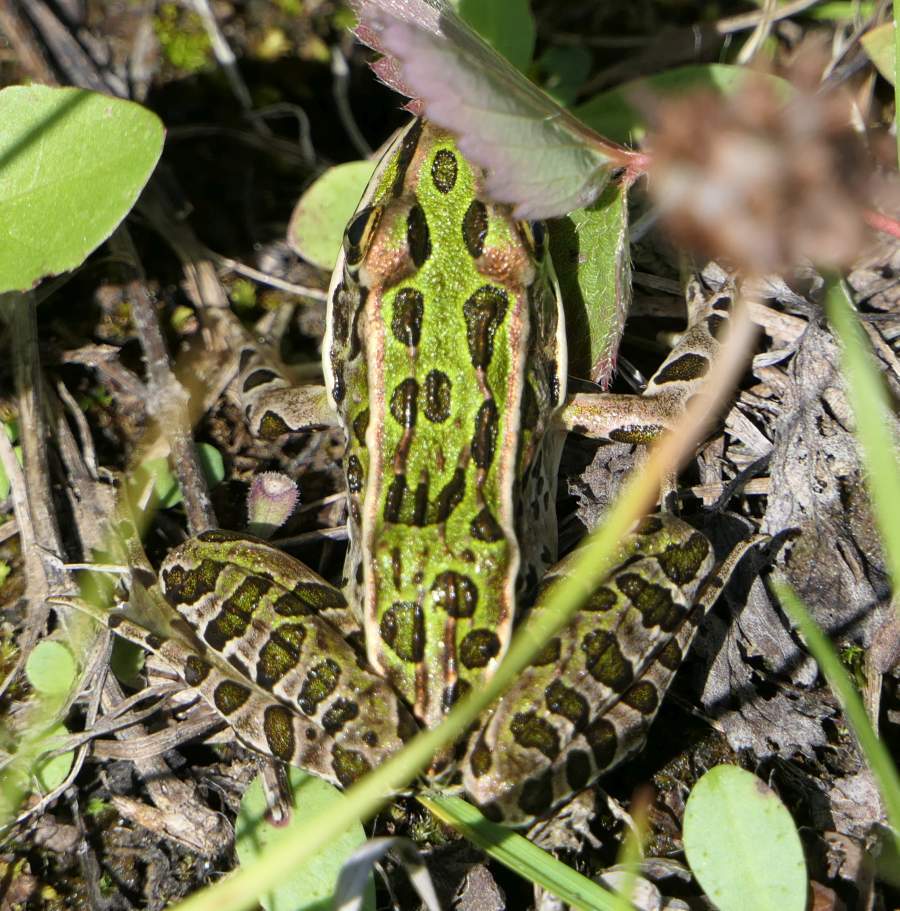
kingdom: Animalia
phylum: Chordata
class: Amphibia
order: Anura
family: Ranidae
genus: Lithobates
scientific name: Lithobates pipiens
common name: Northern leopard frog
